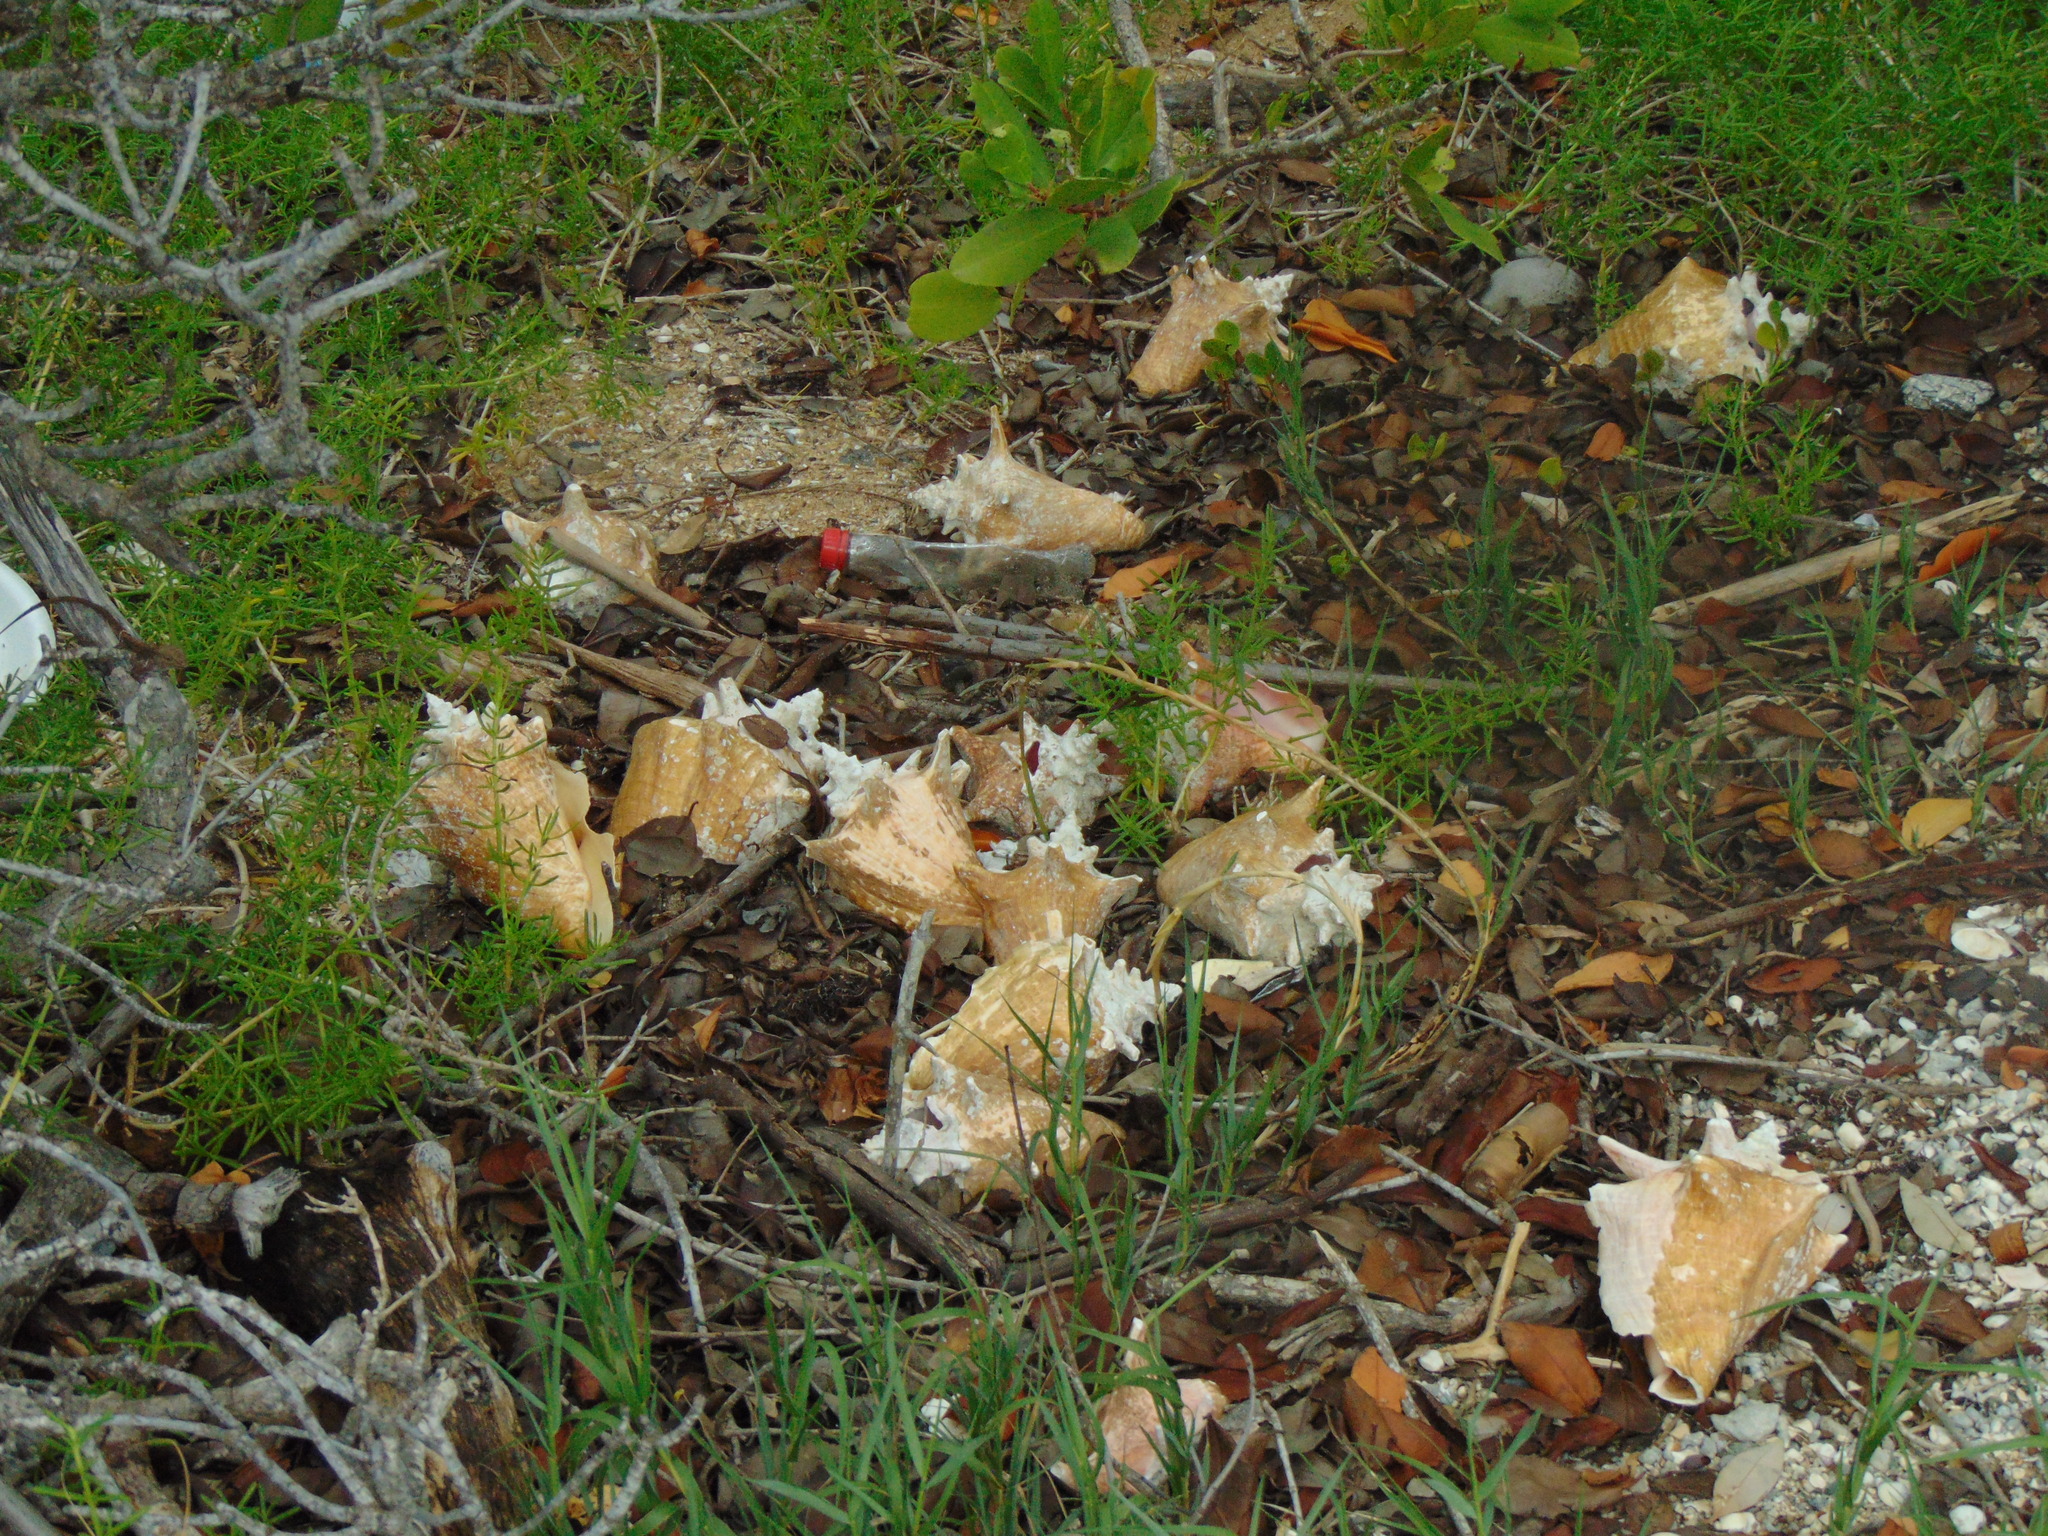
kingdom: Animalia
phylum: Mollusca
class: Gastropoda
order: Littorinimorpha
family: Strombidae
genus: Aliger
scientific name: Aliger gigas
